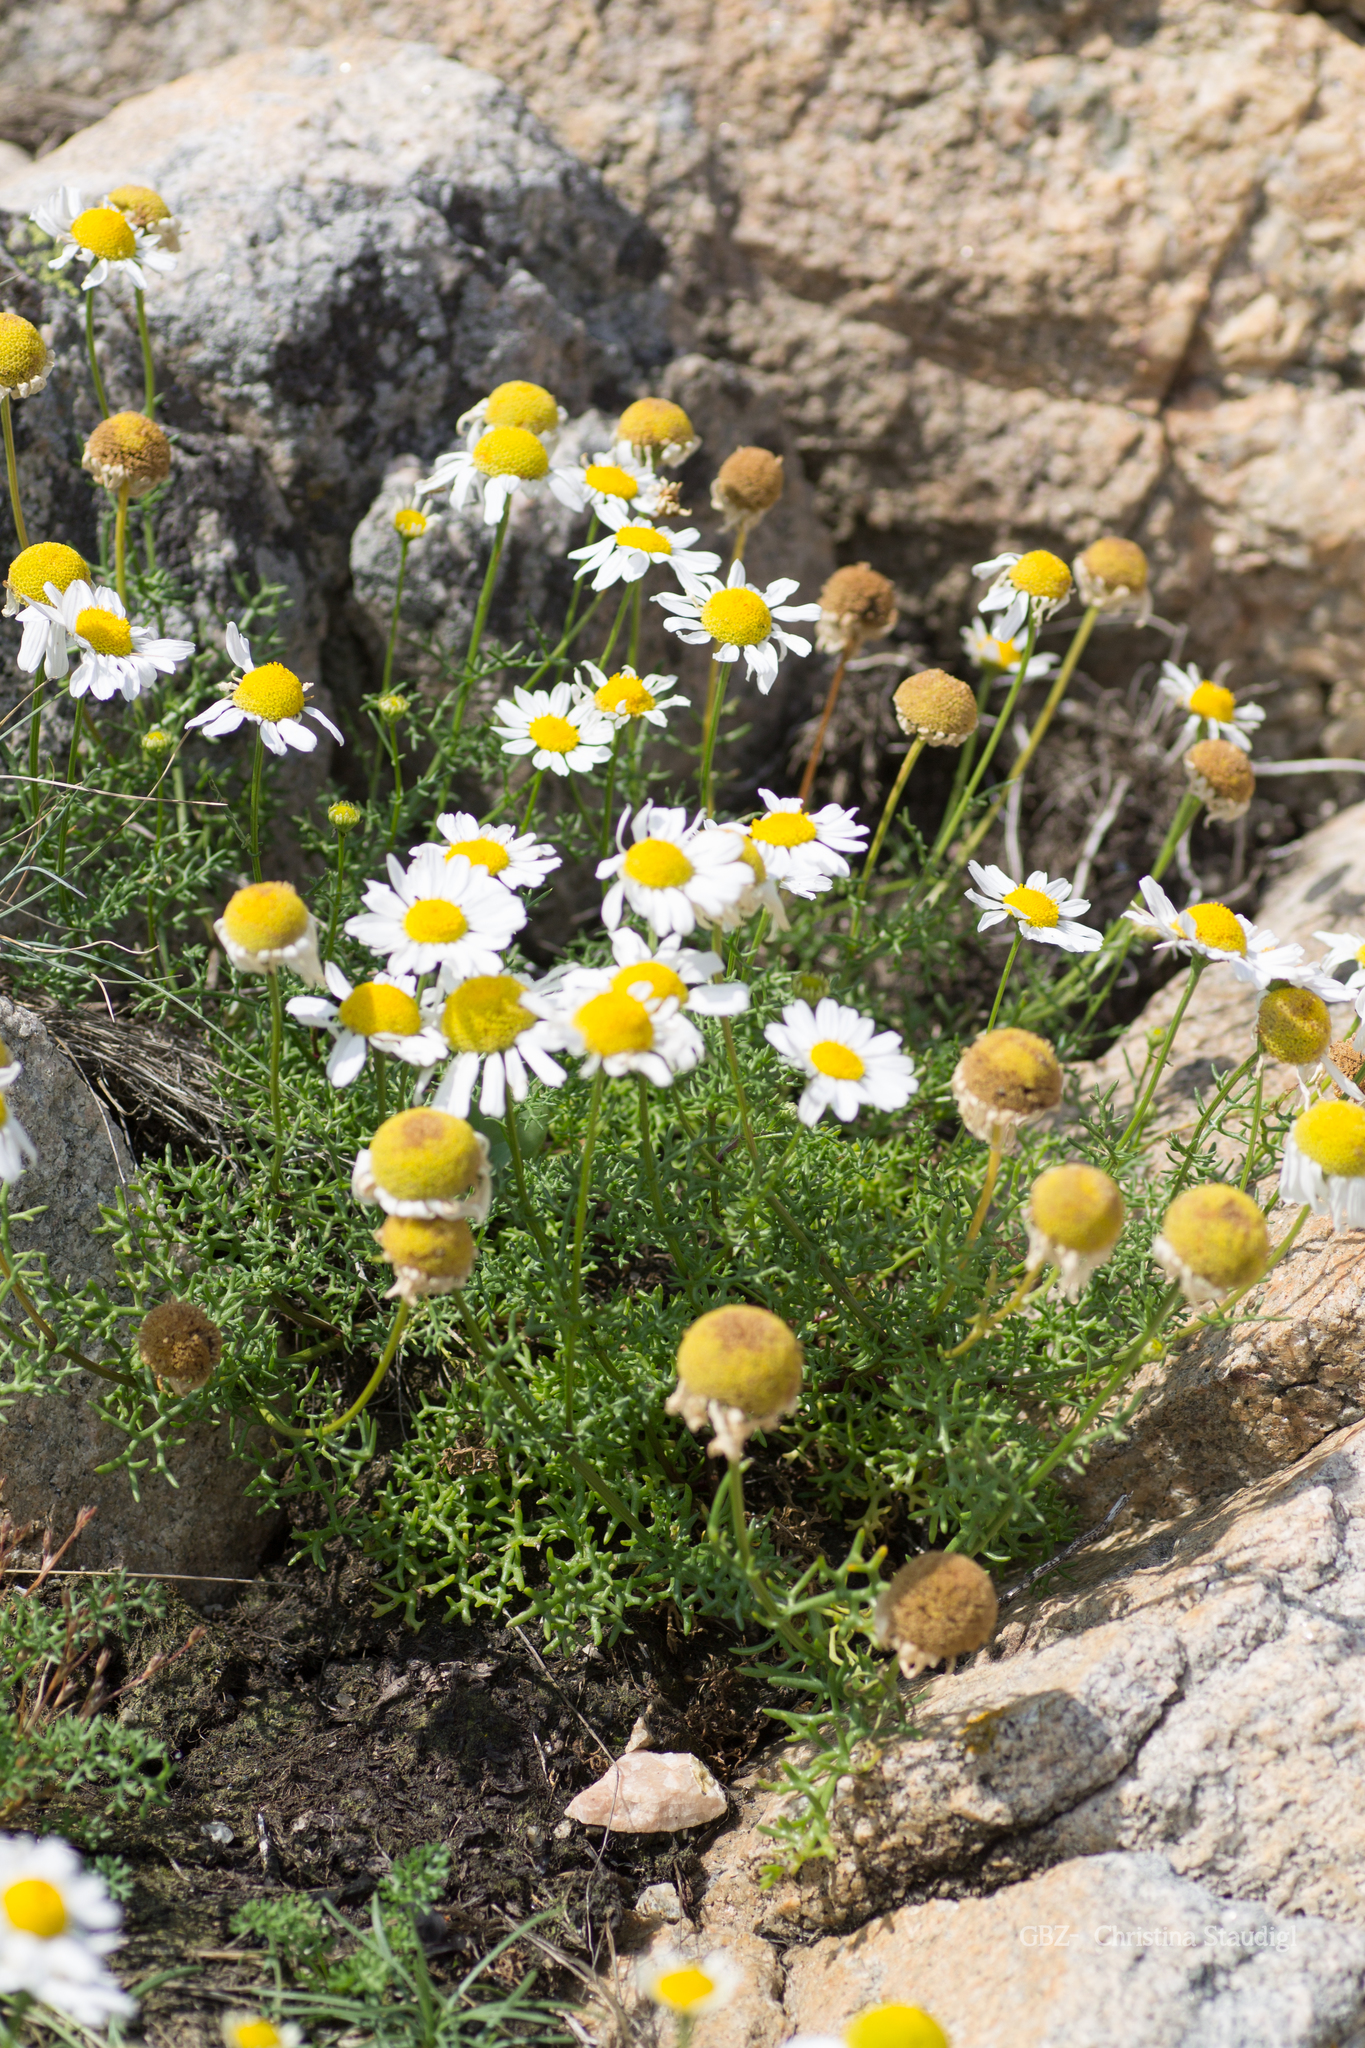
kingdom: Plantae
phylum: Tracheophyta
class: Magnoliopsida
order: Asterales
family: Asteraceae
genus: Tripleurospermum
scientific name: Tripleurospermum maritimum
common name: Sea mayweed
